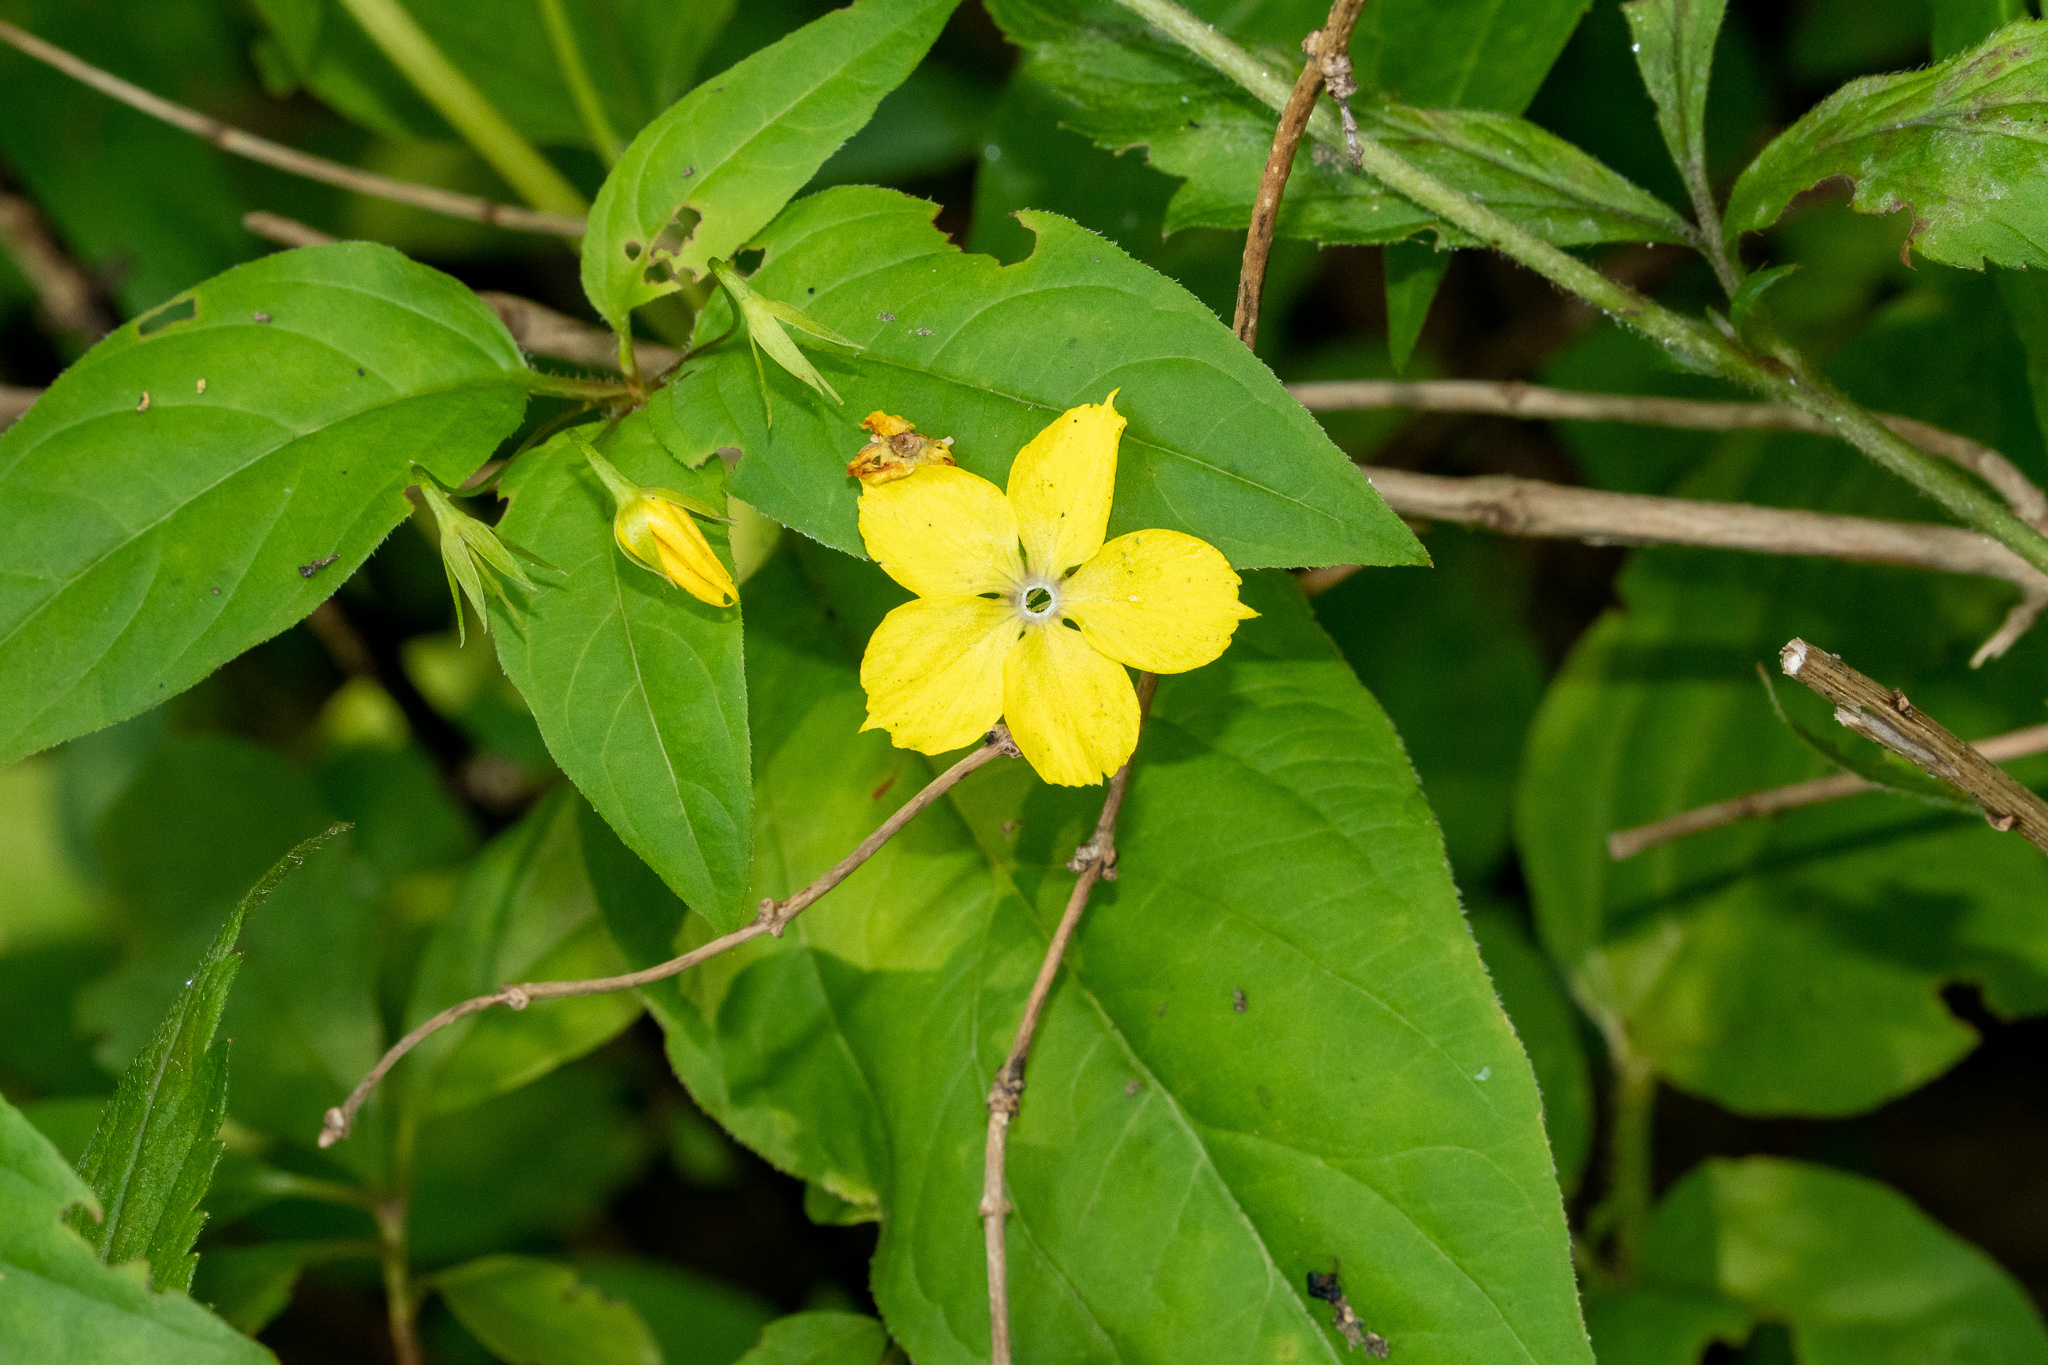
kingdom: Plantae
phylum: Tracheophyta
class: Magnoliopsida
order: Ericales
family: Primulaceae
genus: Lysimachia
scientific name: Lysimachia ciliata
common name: Fringed loosestrife
